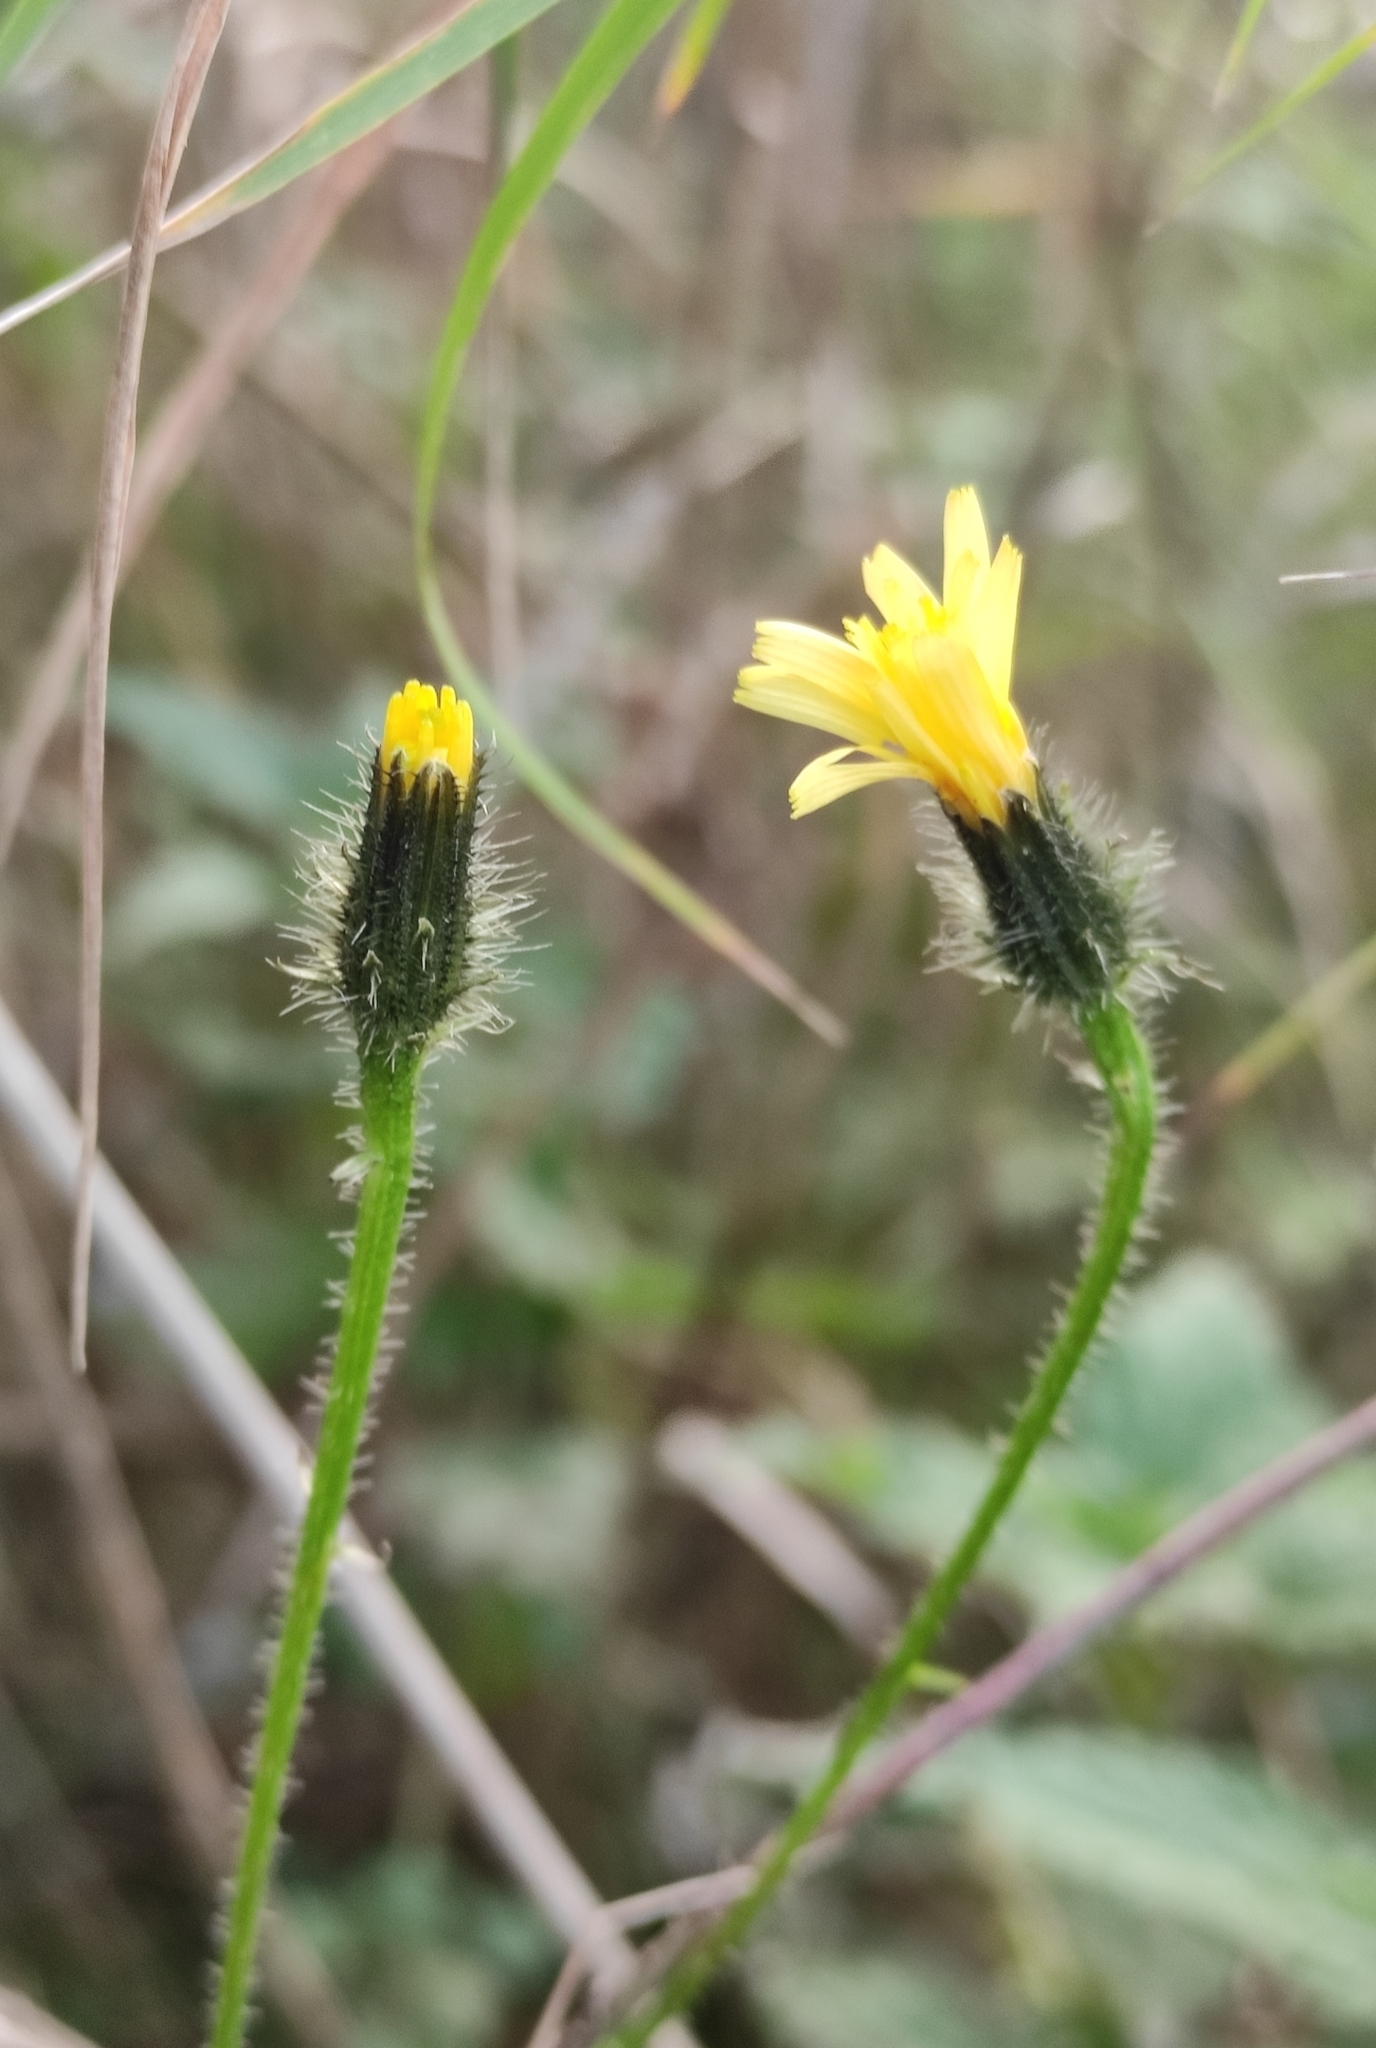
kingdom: Plantae
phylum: Tracheophyta
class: Magnoliopsida
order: Asterales
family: Asteraceae
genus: Picris
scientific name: Picris davurica
